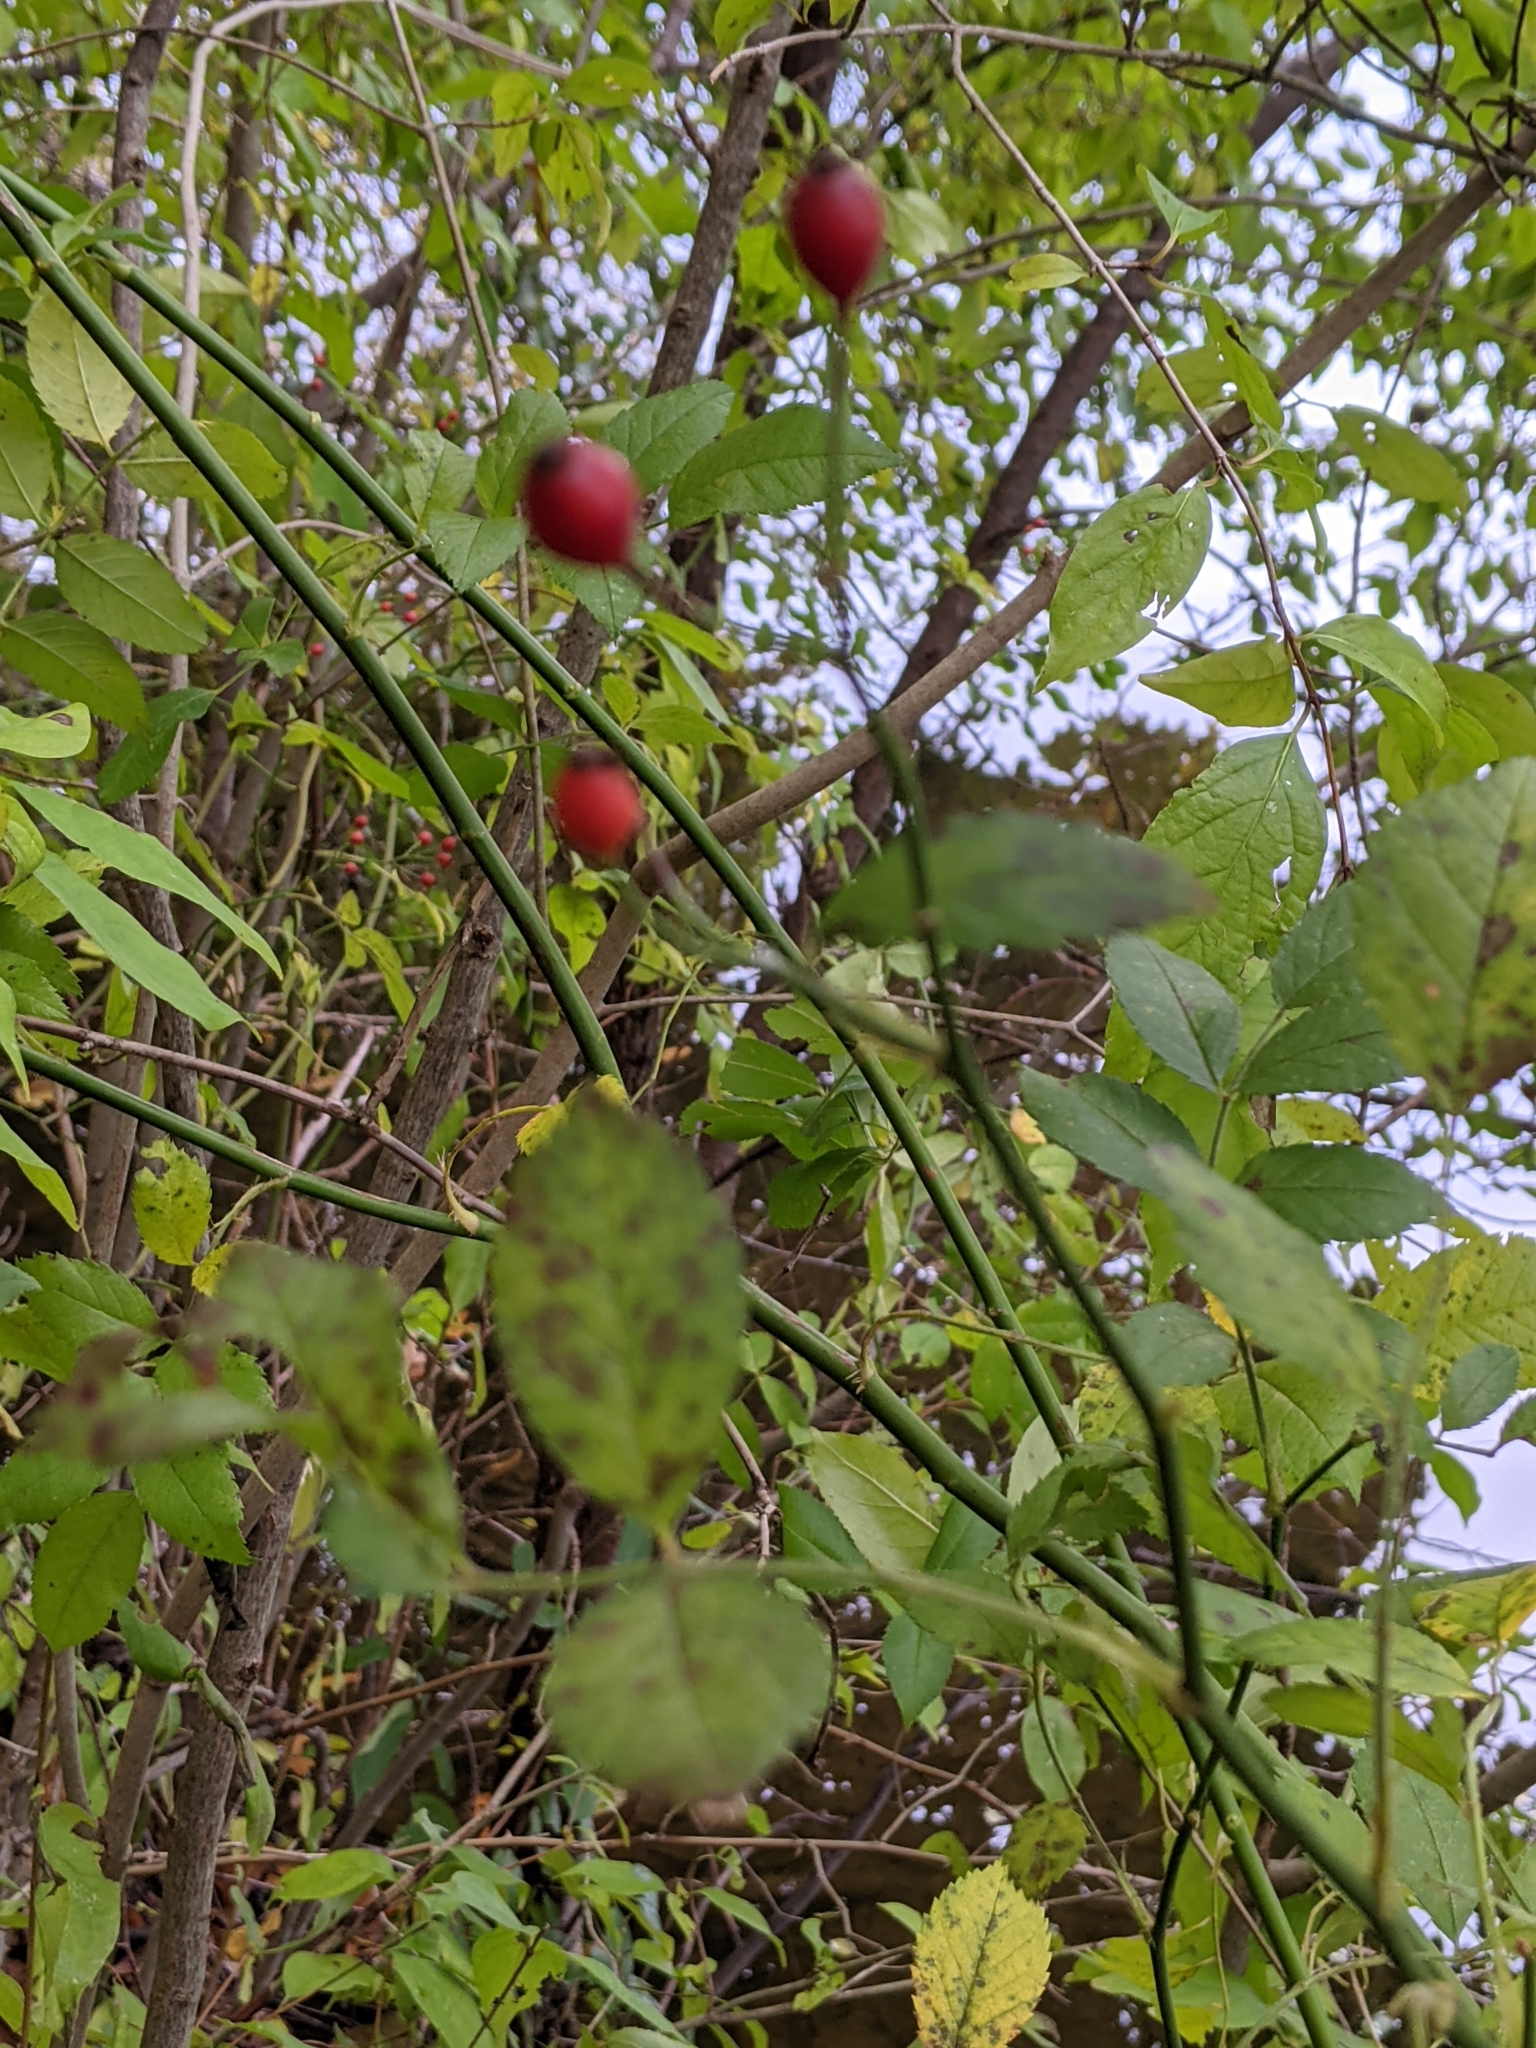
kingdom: Plantae
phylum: Tracheophyta
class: Magnoliopsida
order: Rosales
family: Rosaceae
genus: Rosa
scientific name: Rosa multiflora
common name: Multiflora rose
